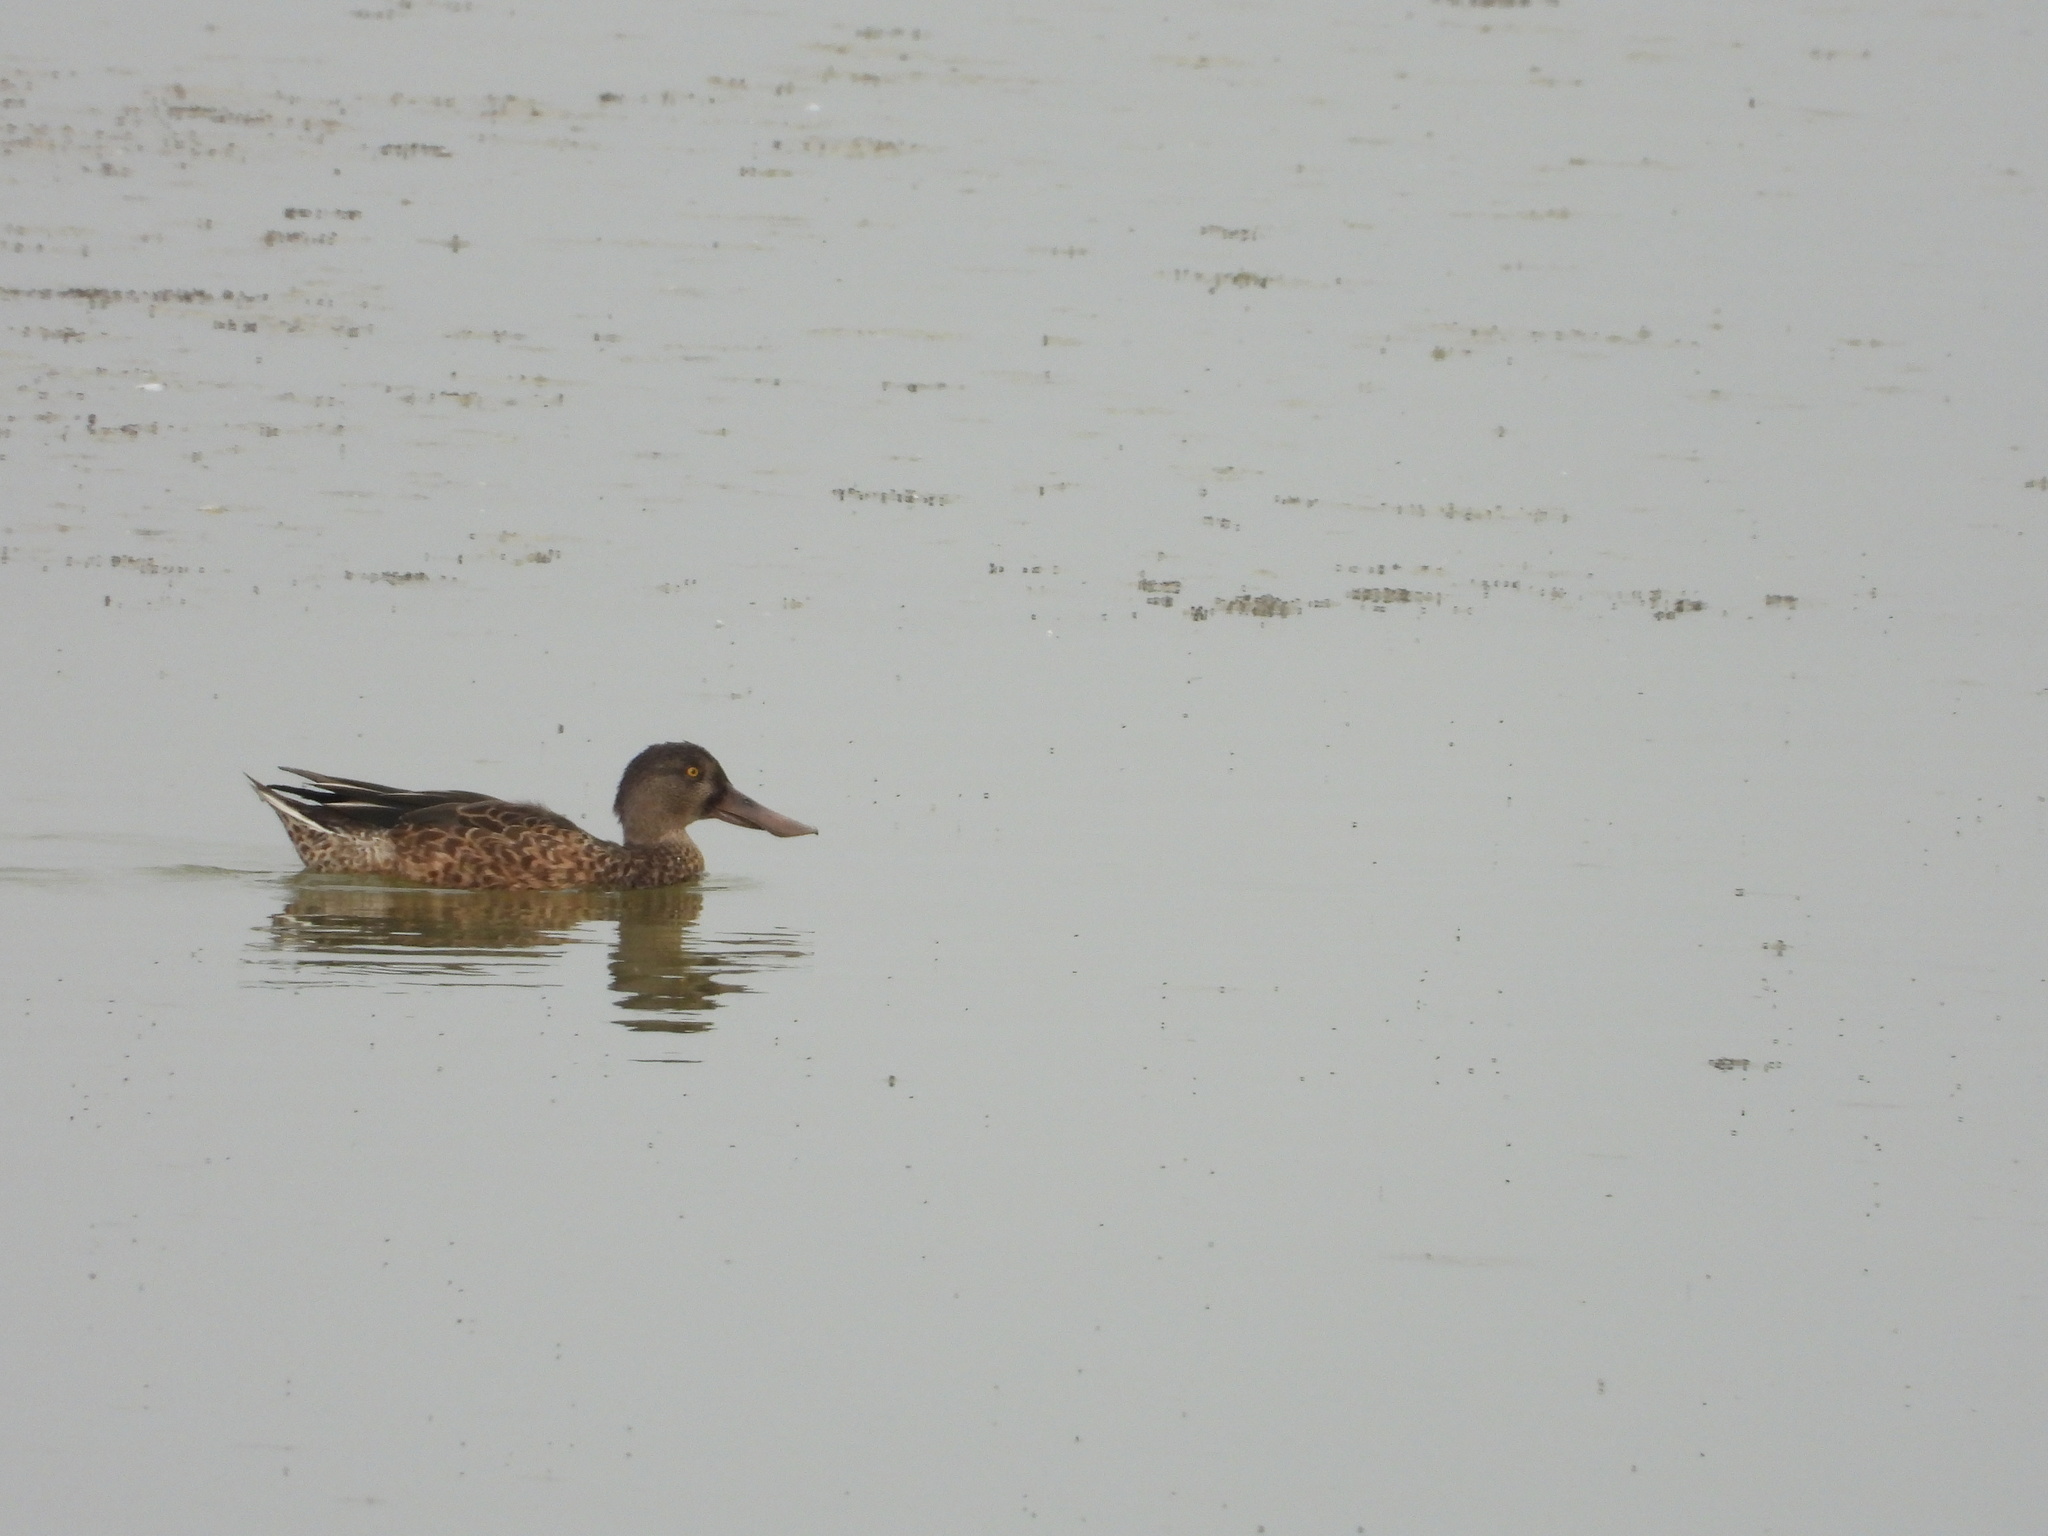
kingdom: Animalia
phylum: Chordata
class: Aves
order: Anseriformes
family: Anatidae
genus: Spatula
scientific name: Spatula clypeata
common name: Northern shoveler
